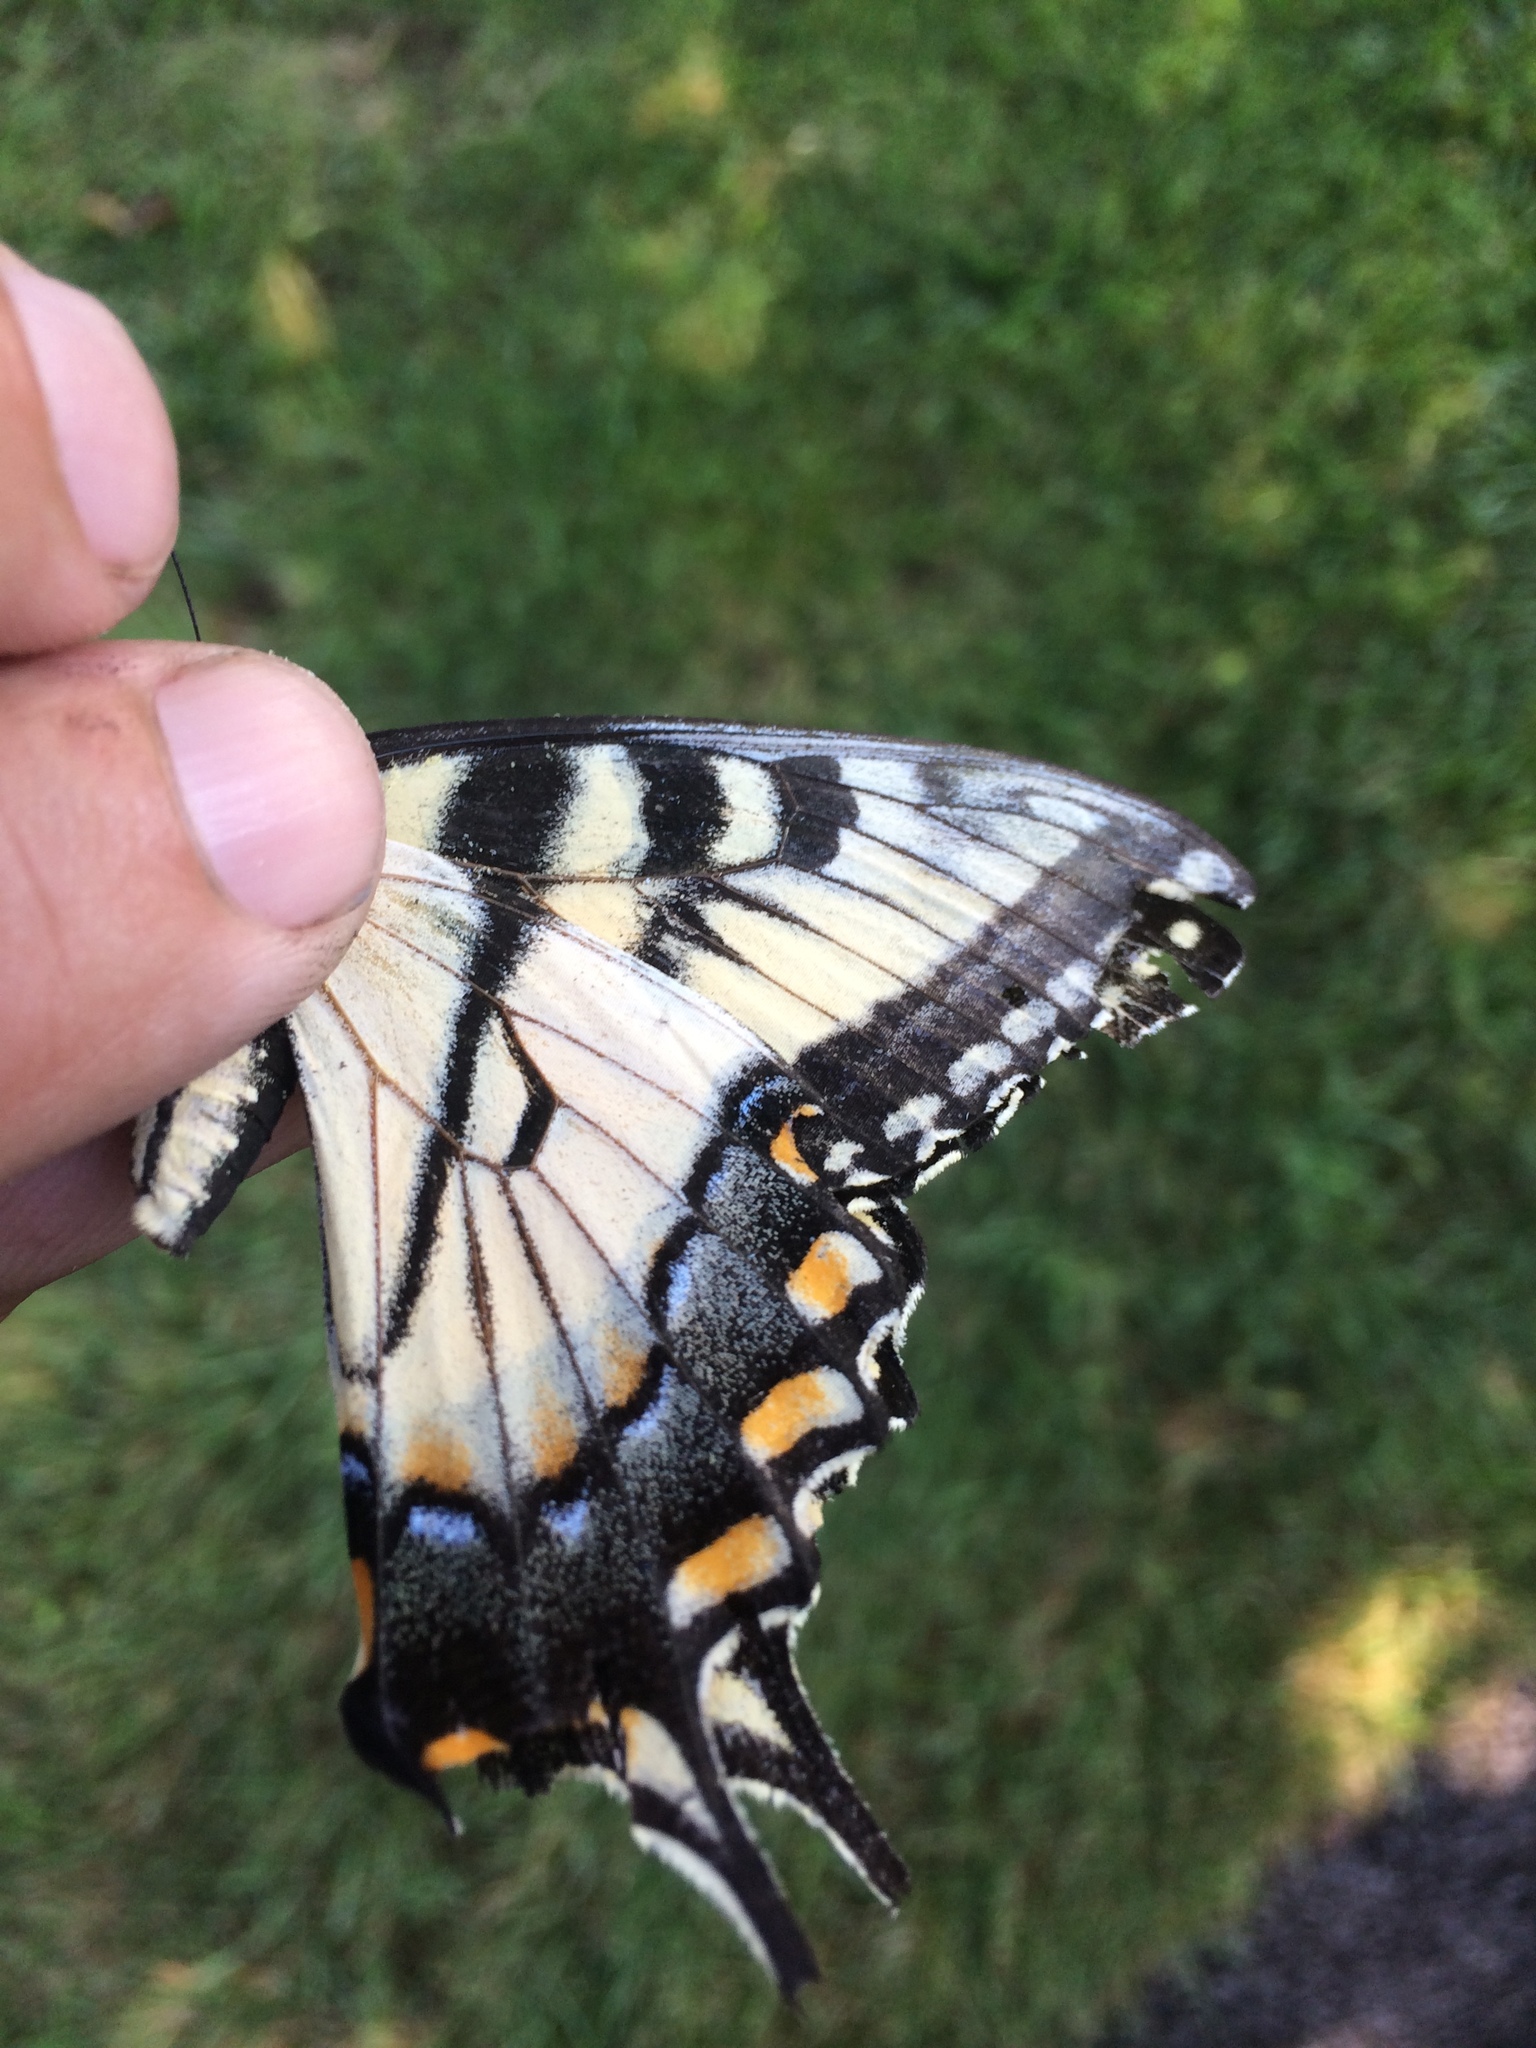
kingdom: Animalia
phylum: Arthropoda
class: Insecta
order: Lepidoptera
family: Papilionidae
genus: Papilio
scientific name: Papilio glaucus
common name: Tiger swallowtail
